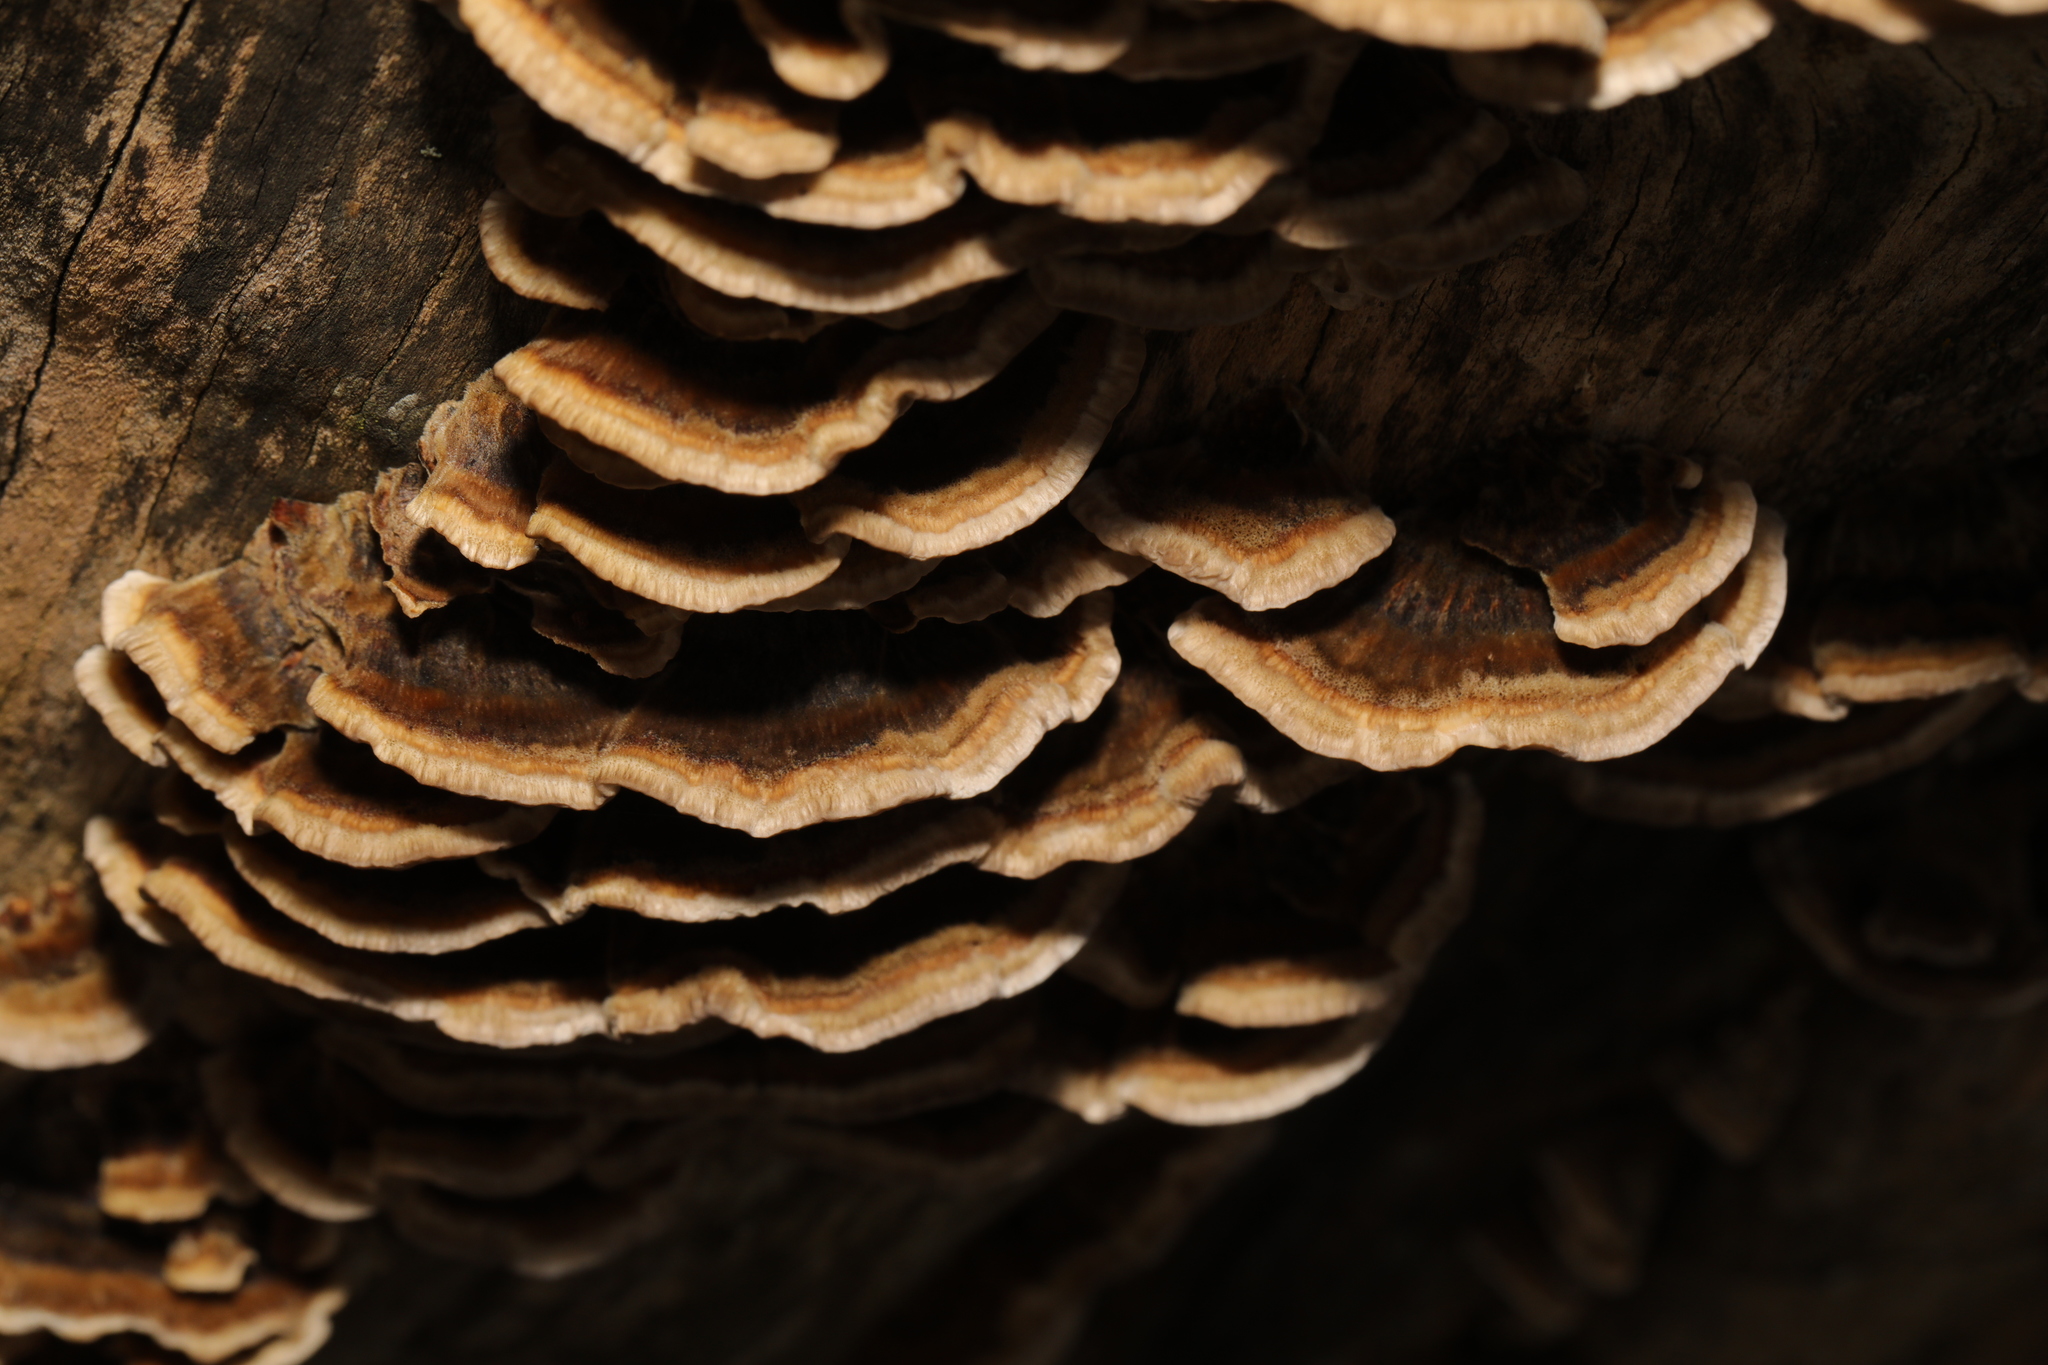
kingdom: Fungi
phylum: Basidiomycota
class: Agaricomycetes
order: Polyporales
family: Polyporaceae
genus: Trametes
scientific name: Trametes versicolor
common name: Turkeytail
